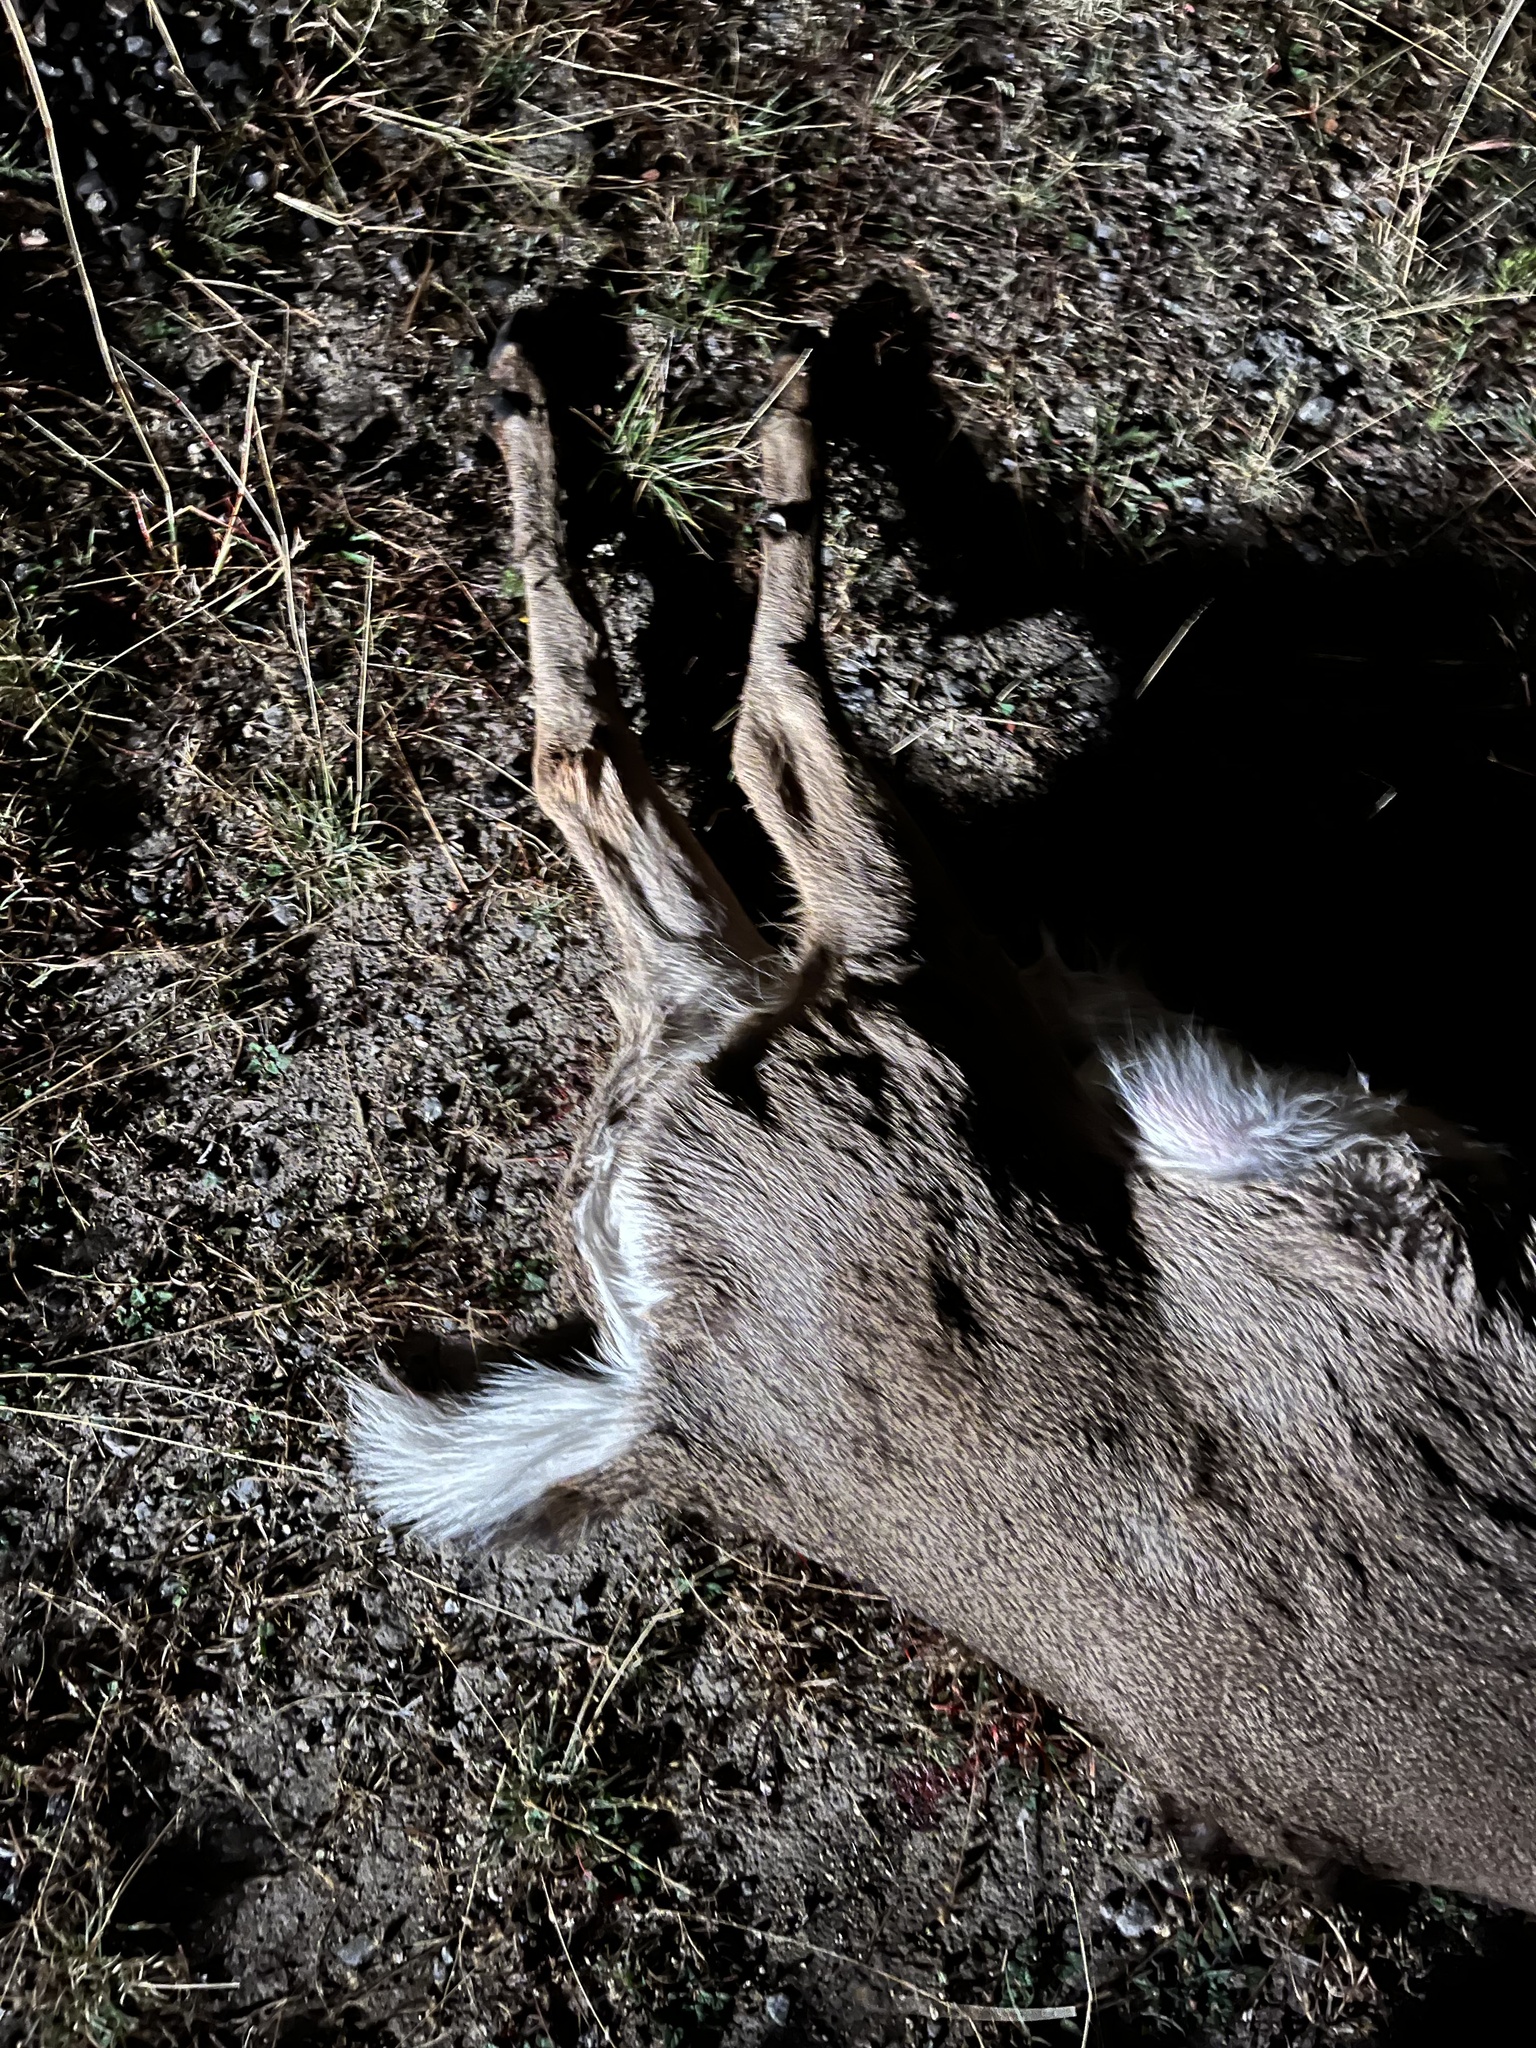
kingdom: Animalia
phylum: Chordata
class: Mammalia
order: Artiodactyla
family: Cervidae
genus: Odocoileus
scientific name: Odocoileus virginianus
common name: White-tailed deer
